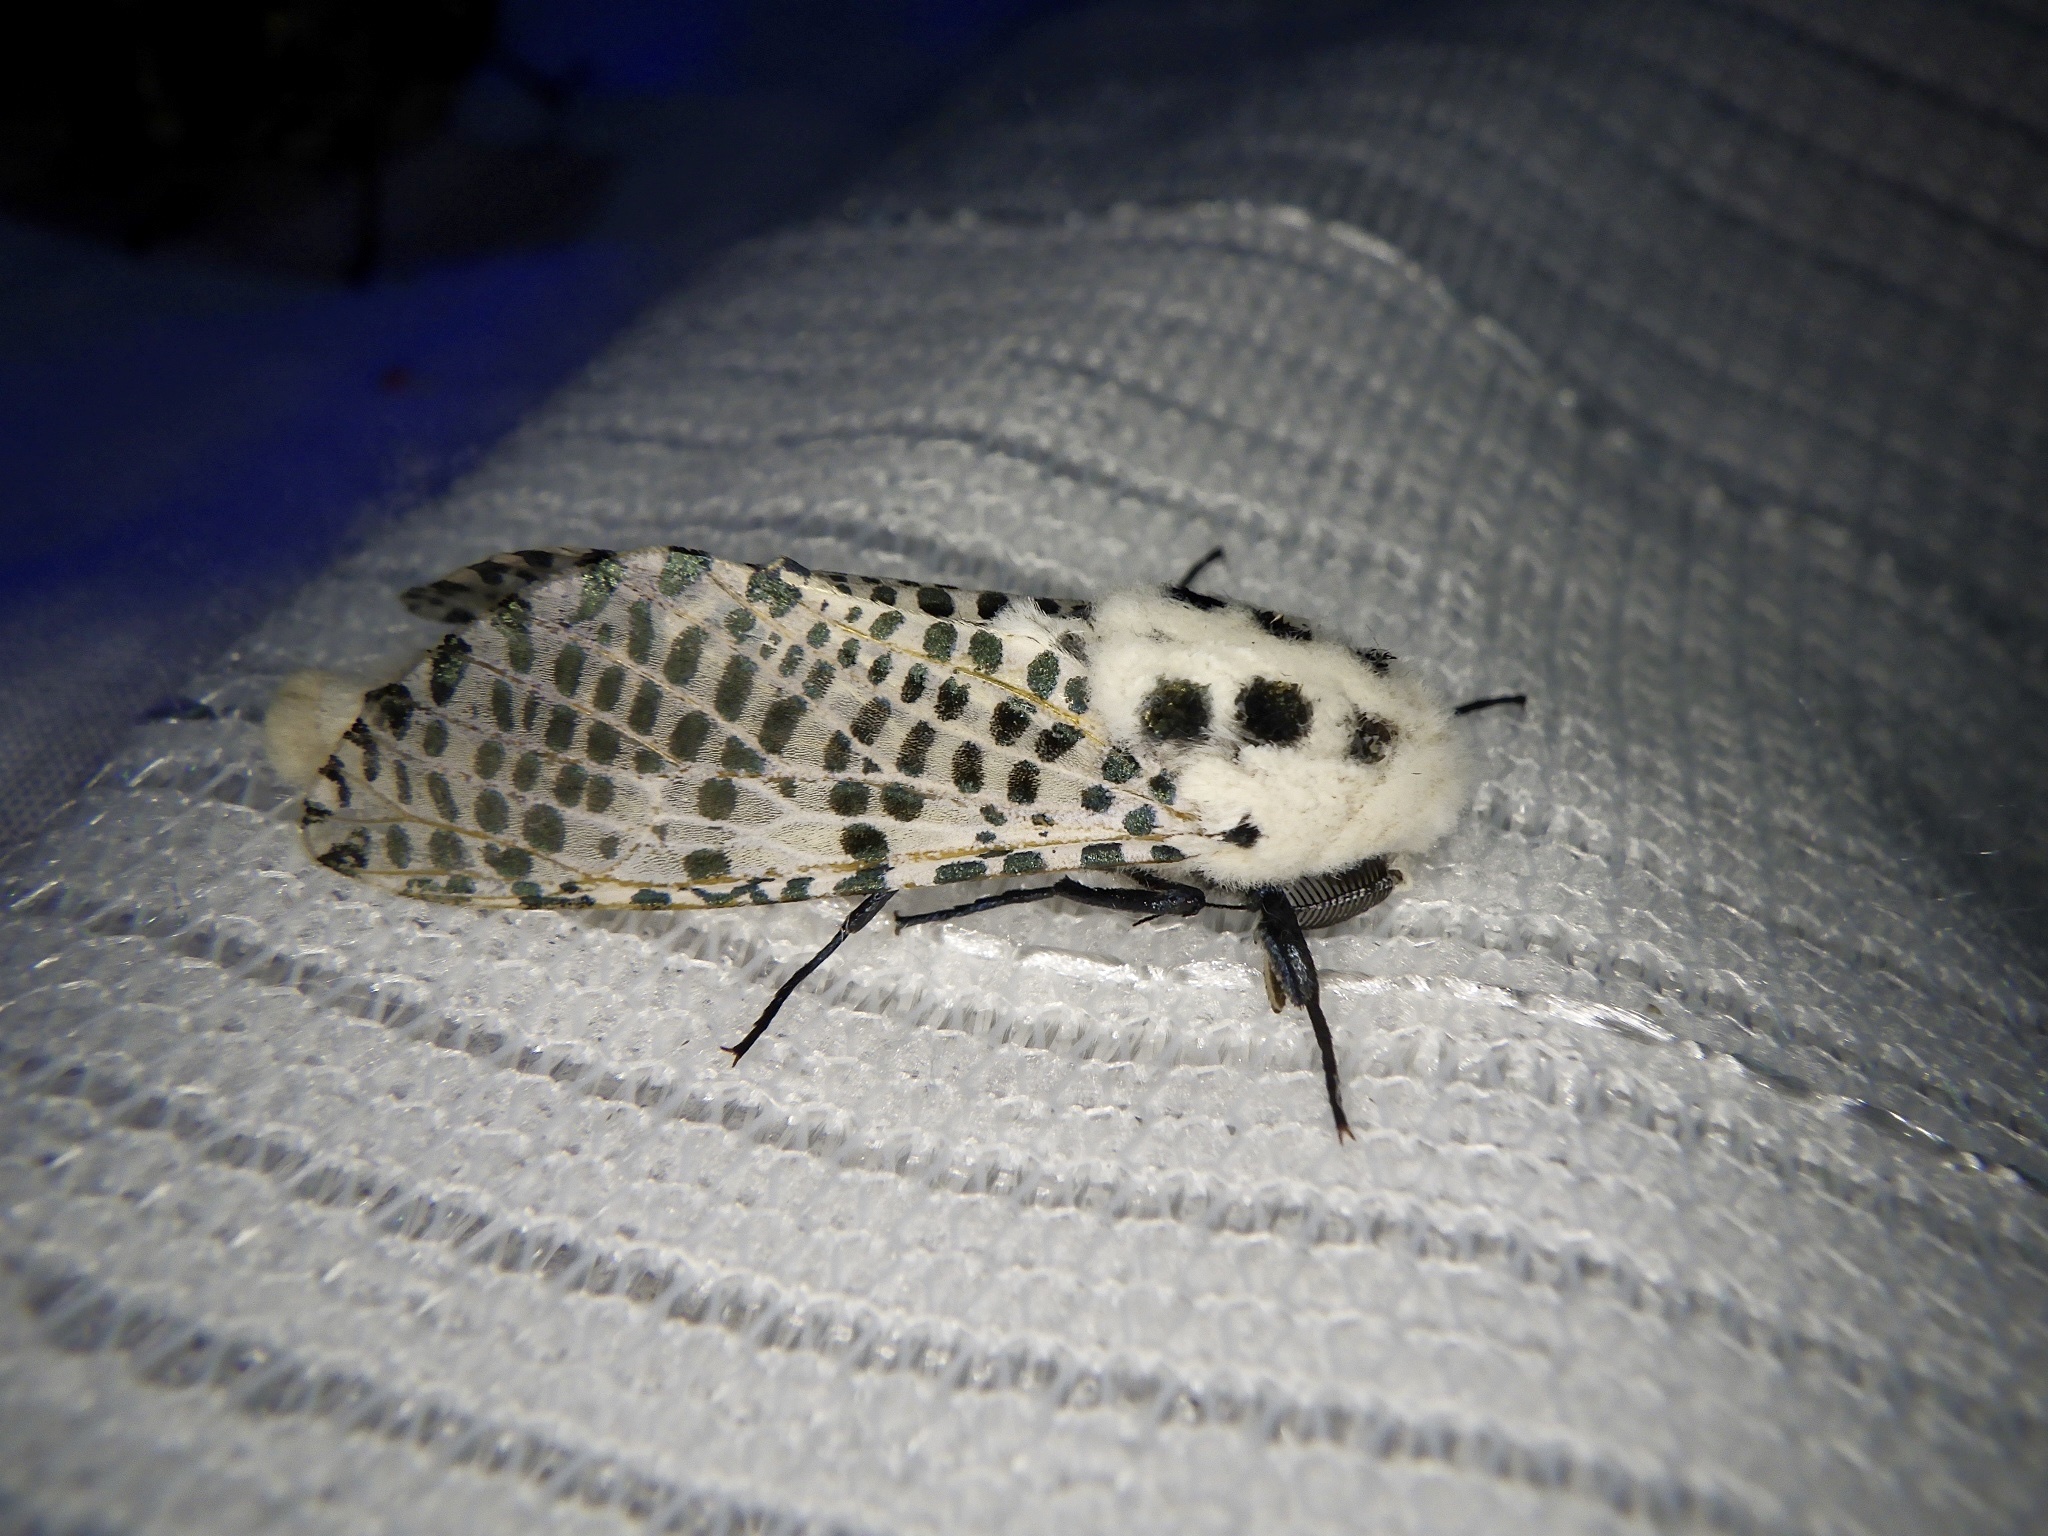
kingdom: Animalia
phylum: Arthropoda
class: Insecta
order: Lepidoptera
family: Cossidae
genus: Zeuzera
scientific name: Zeuzera multistrigata
